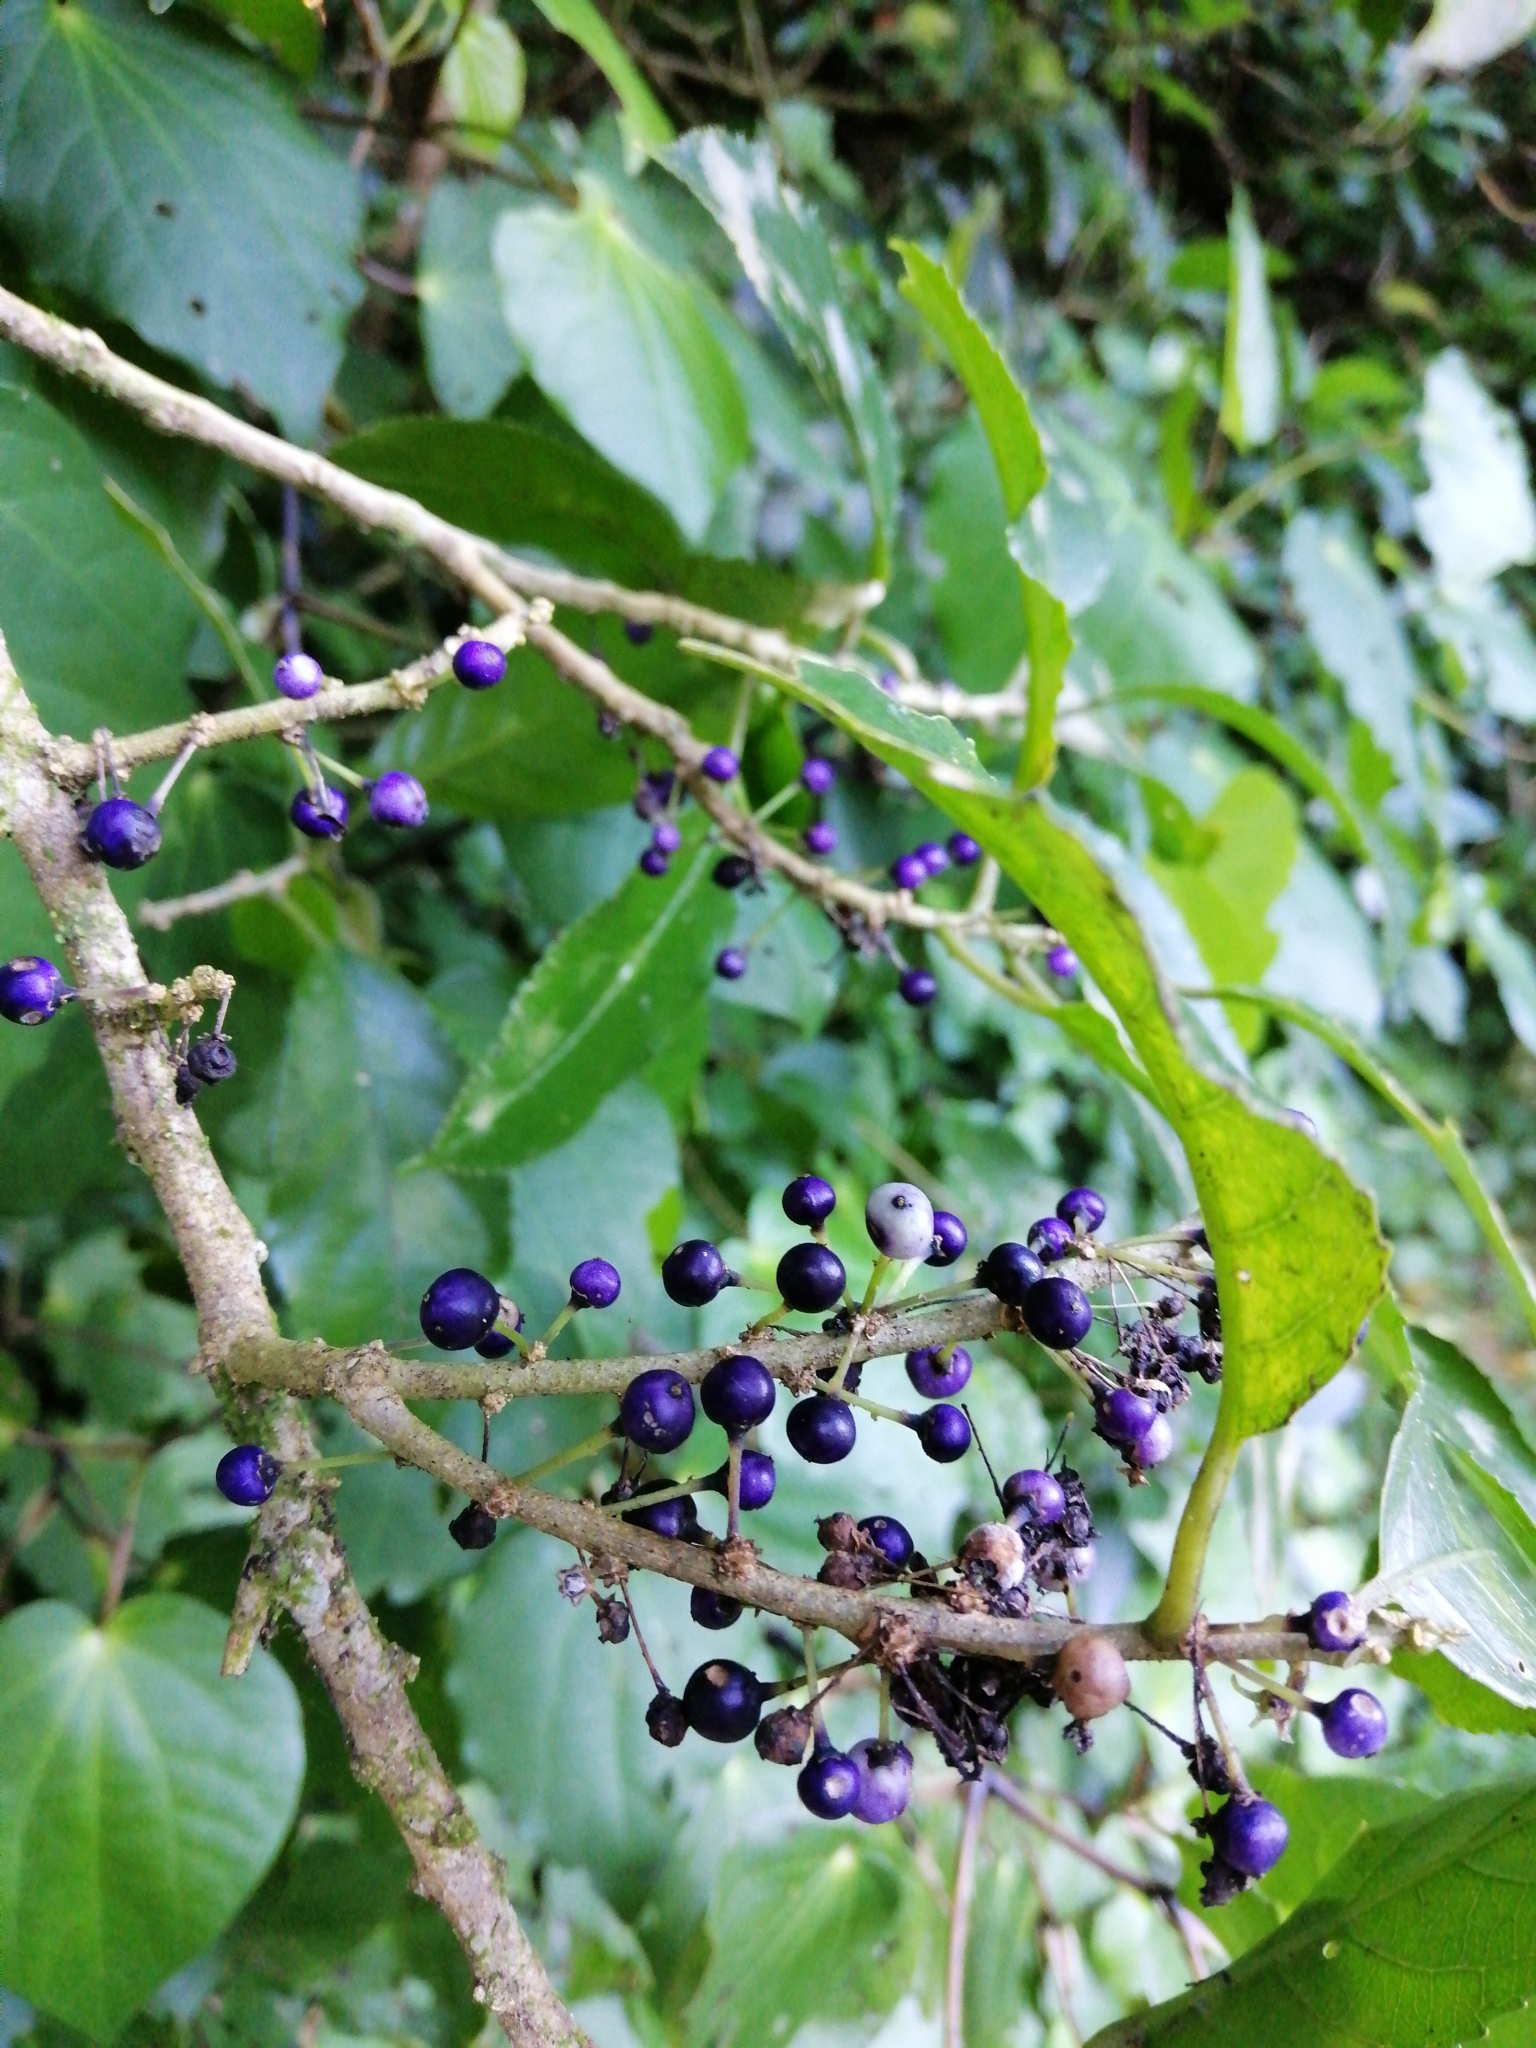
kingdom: Plantae
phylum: Tracheophyta
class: Magnoliopsida
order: Malpighiales
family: Violaceae
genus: Melicytus
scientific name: Melicytus ramiflorus
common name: Mahoe
